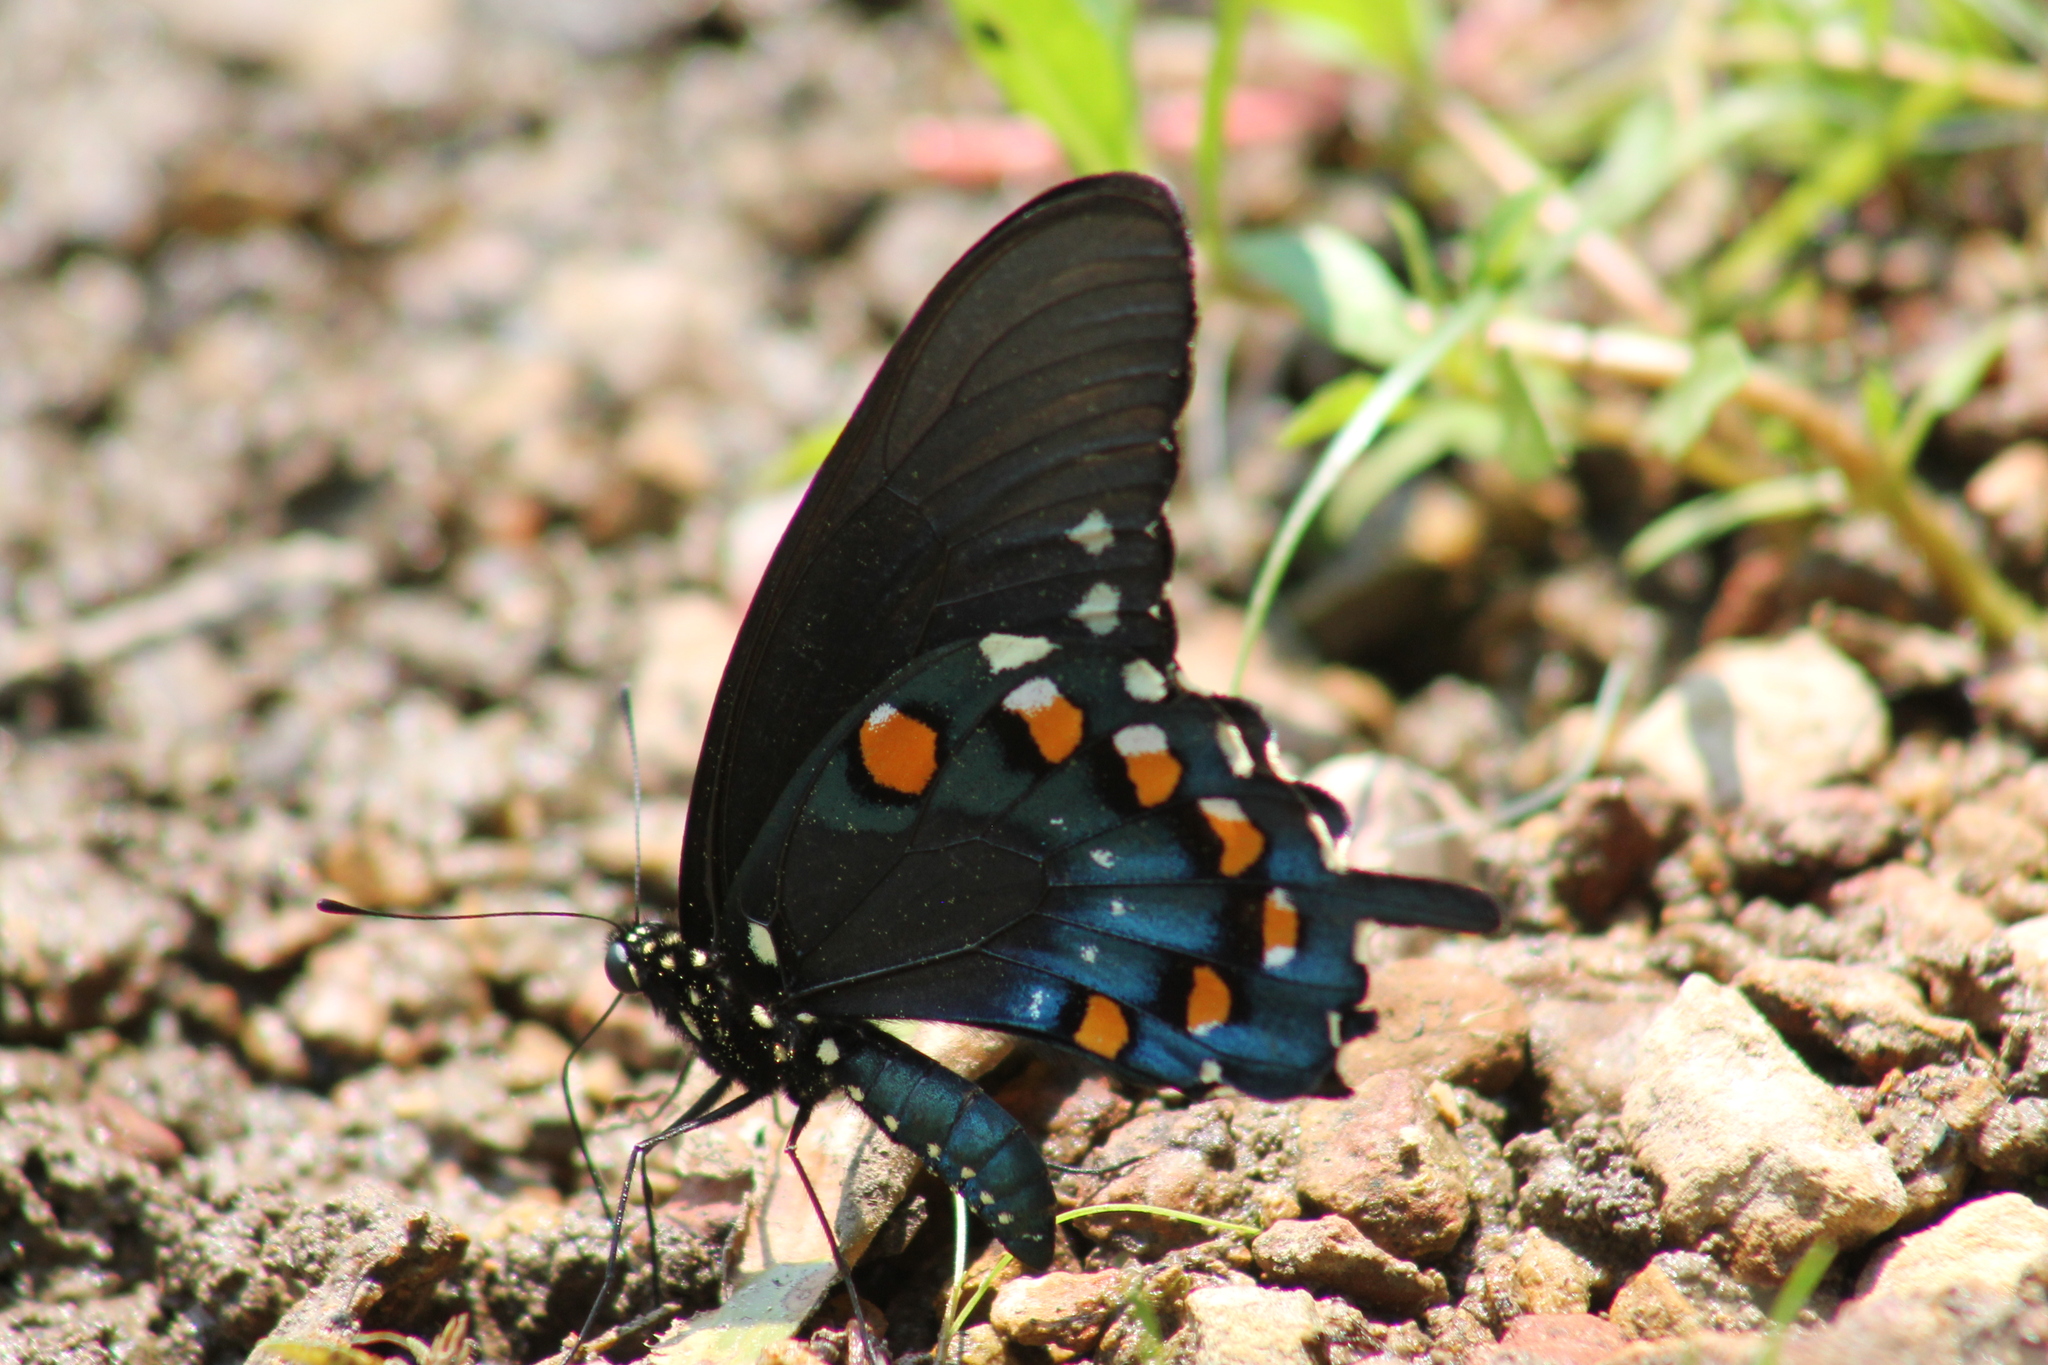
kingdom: Animalia
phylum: Arthropoda
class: Insecta
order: Lepidoptera
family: Papilionidae
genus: Battus
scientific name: Battus philenor
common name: Pipevine swallowtail
